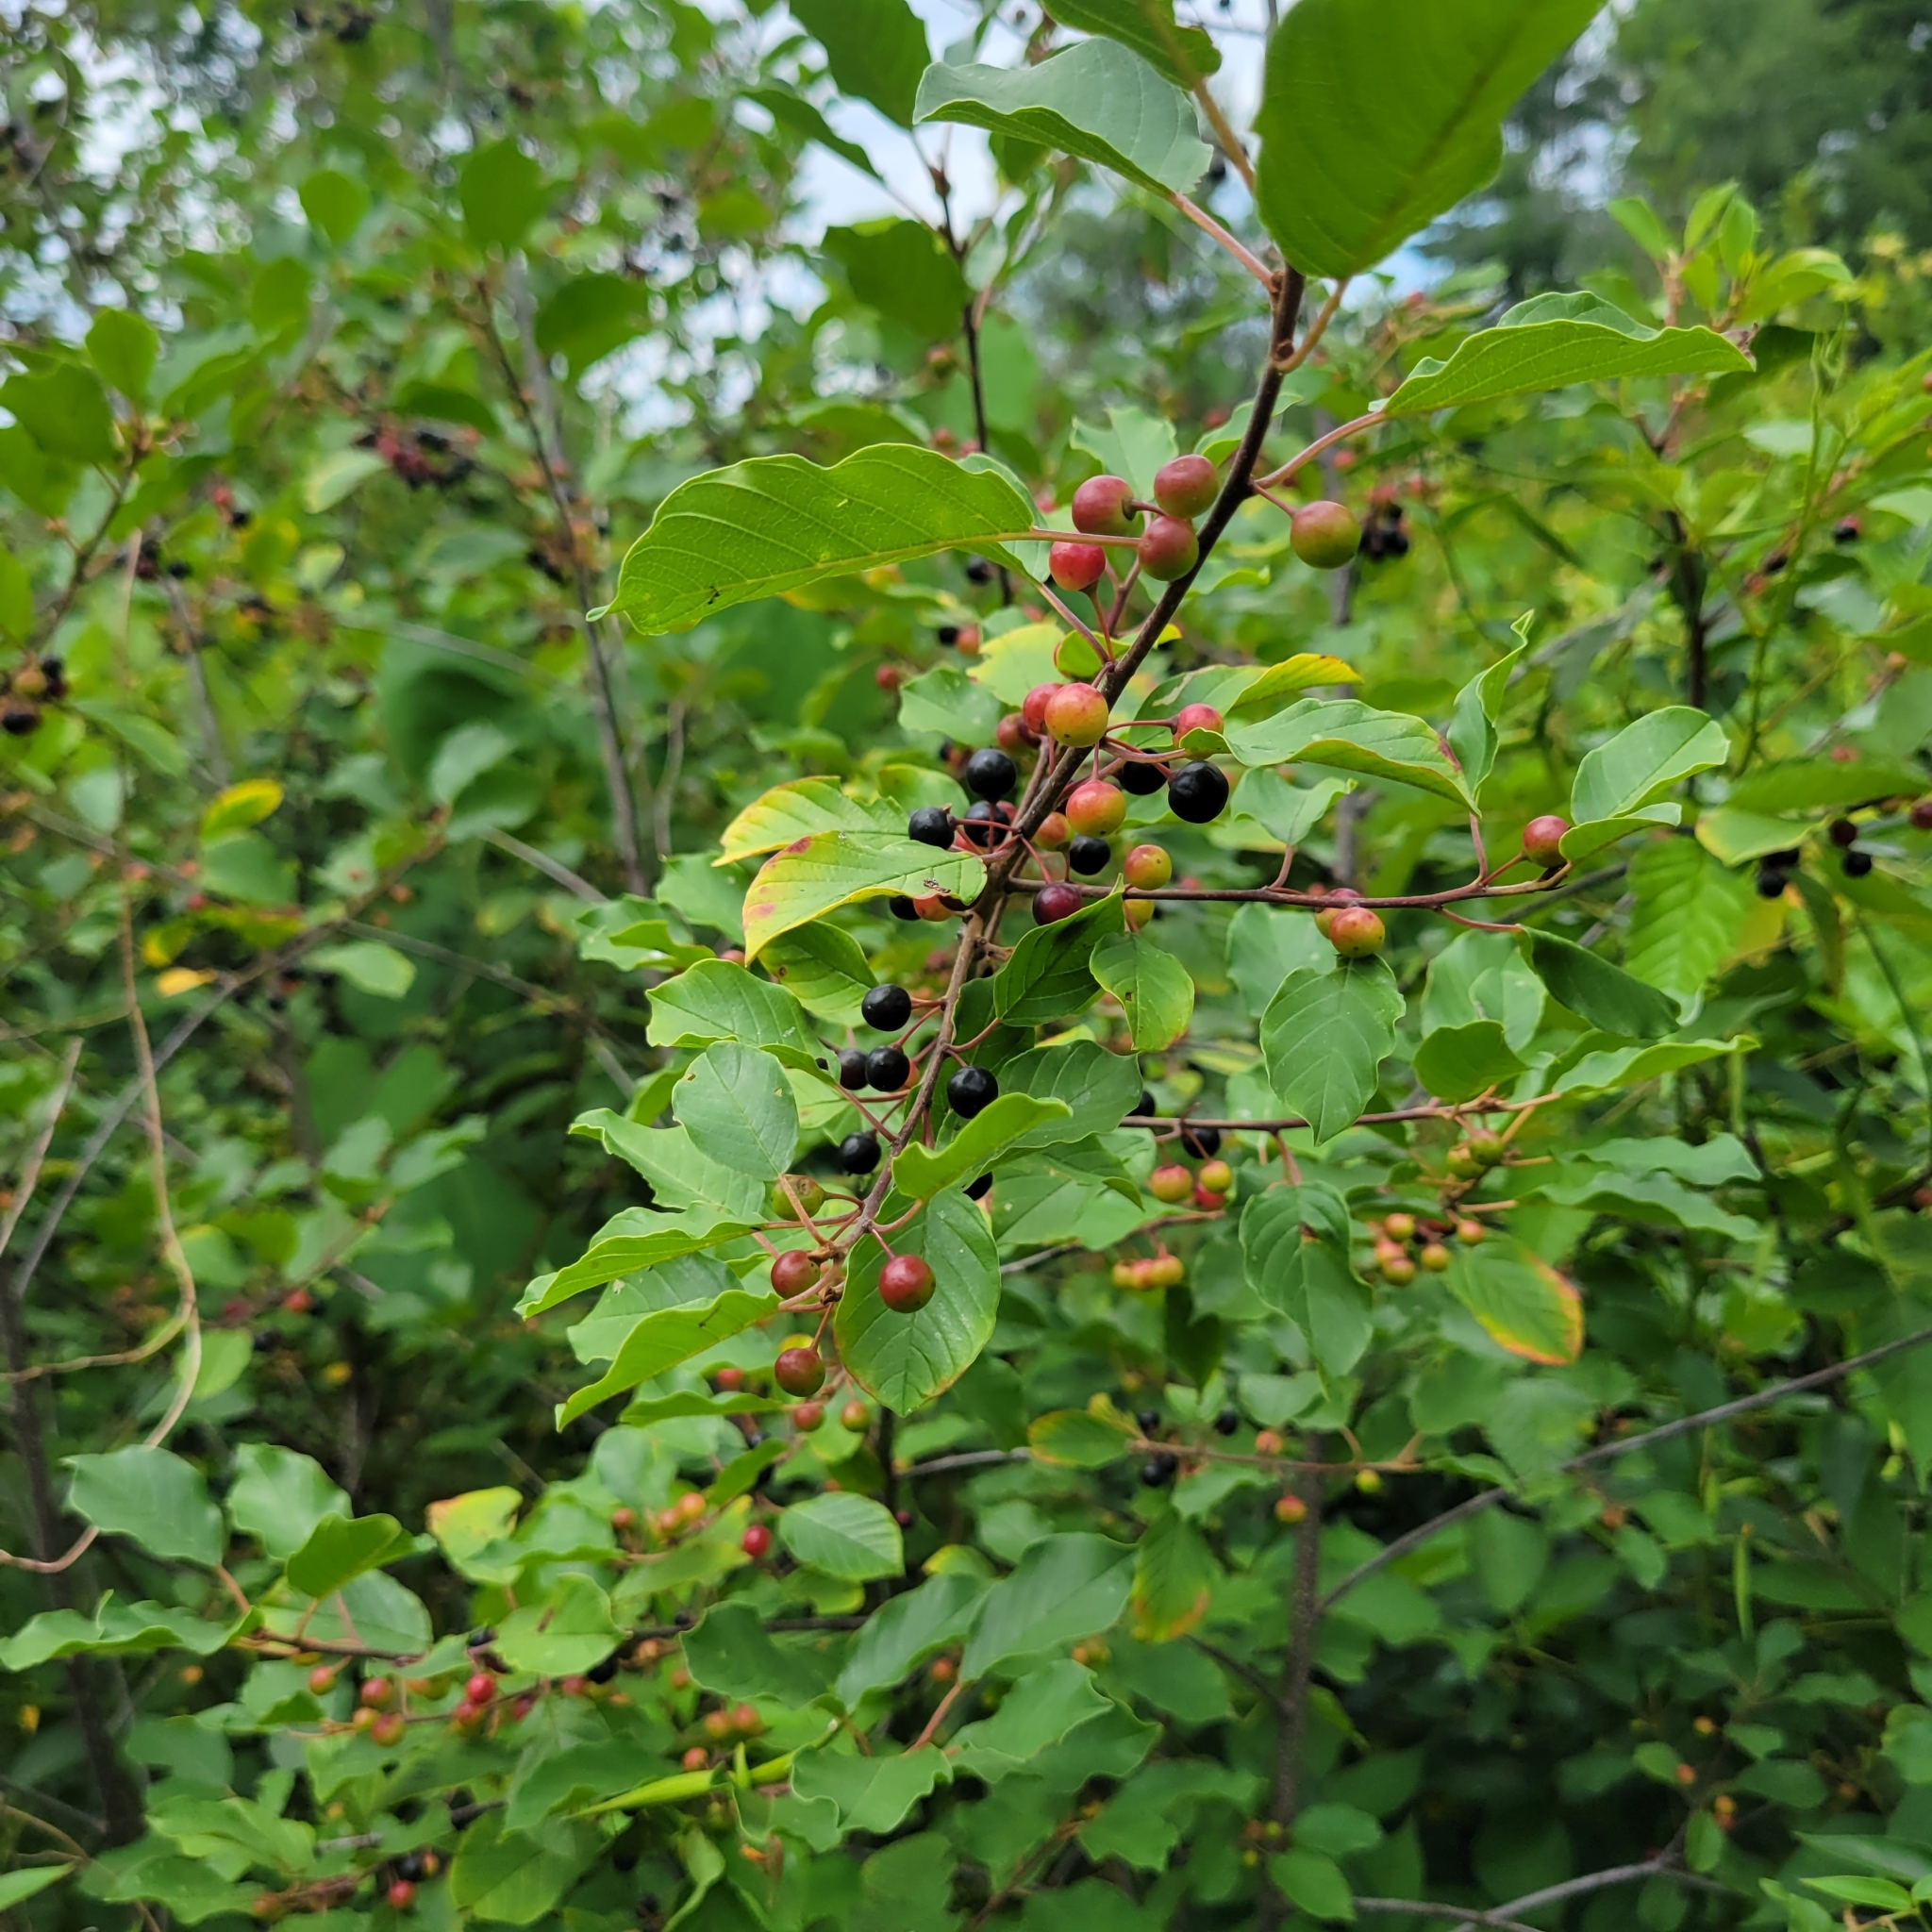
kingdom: Plantae
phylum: Tracheophyta
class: Magnoliopsida
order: Rosales
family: Rhamnaceae
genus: Frangula
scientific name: Frangula alnus
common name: Alder buckthorn
